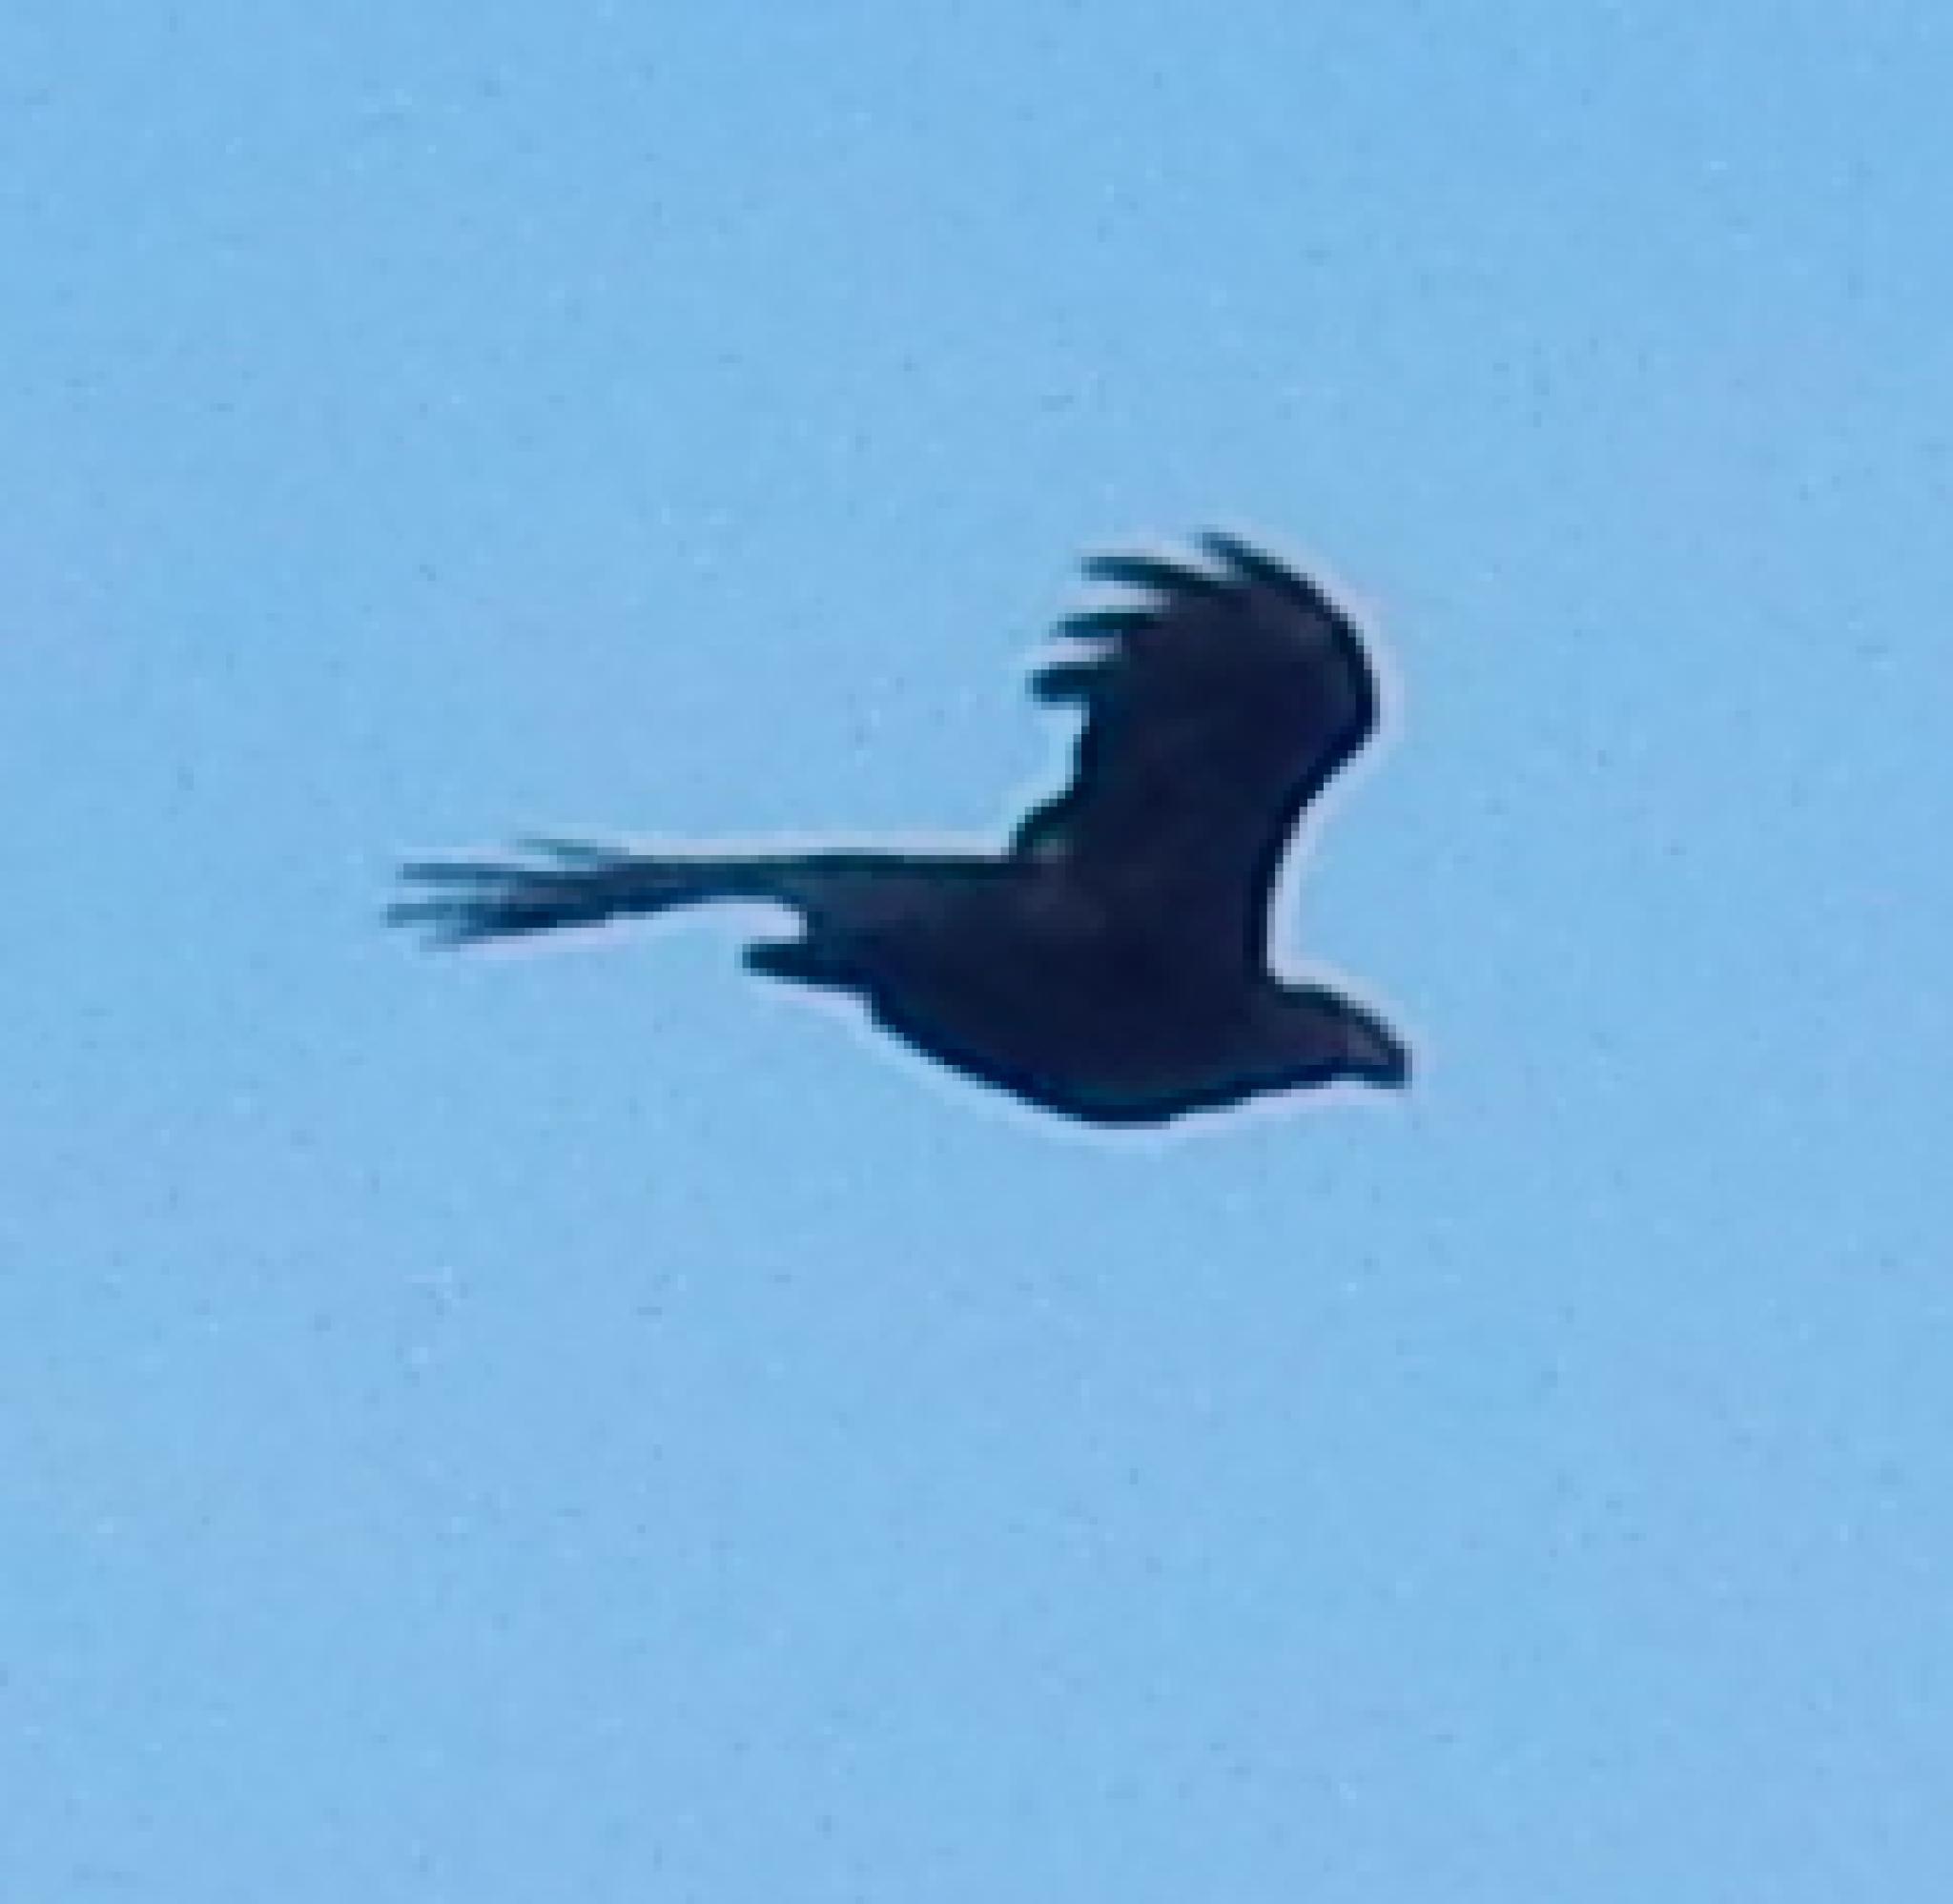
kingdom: Animalia
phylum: Chordata
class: Aves
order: Passeriformes
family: Corvidae
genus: Corvus
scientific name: Corvus albicollis
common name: White-necked raven
